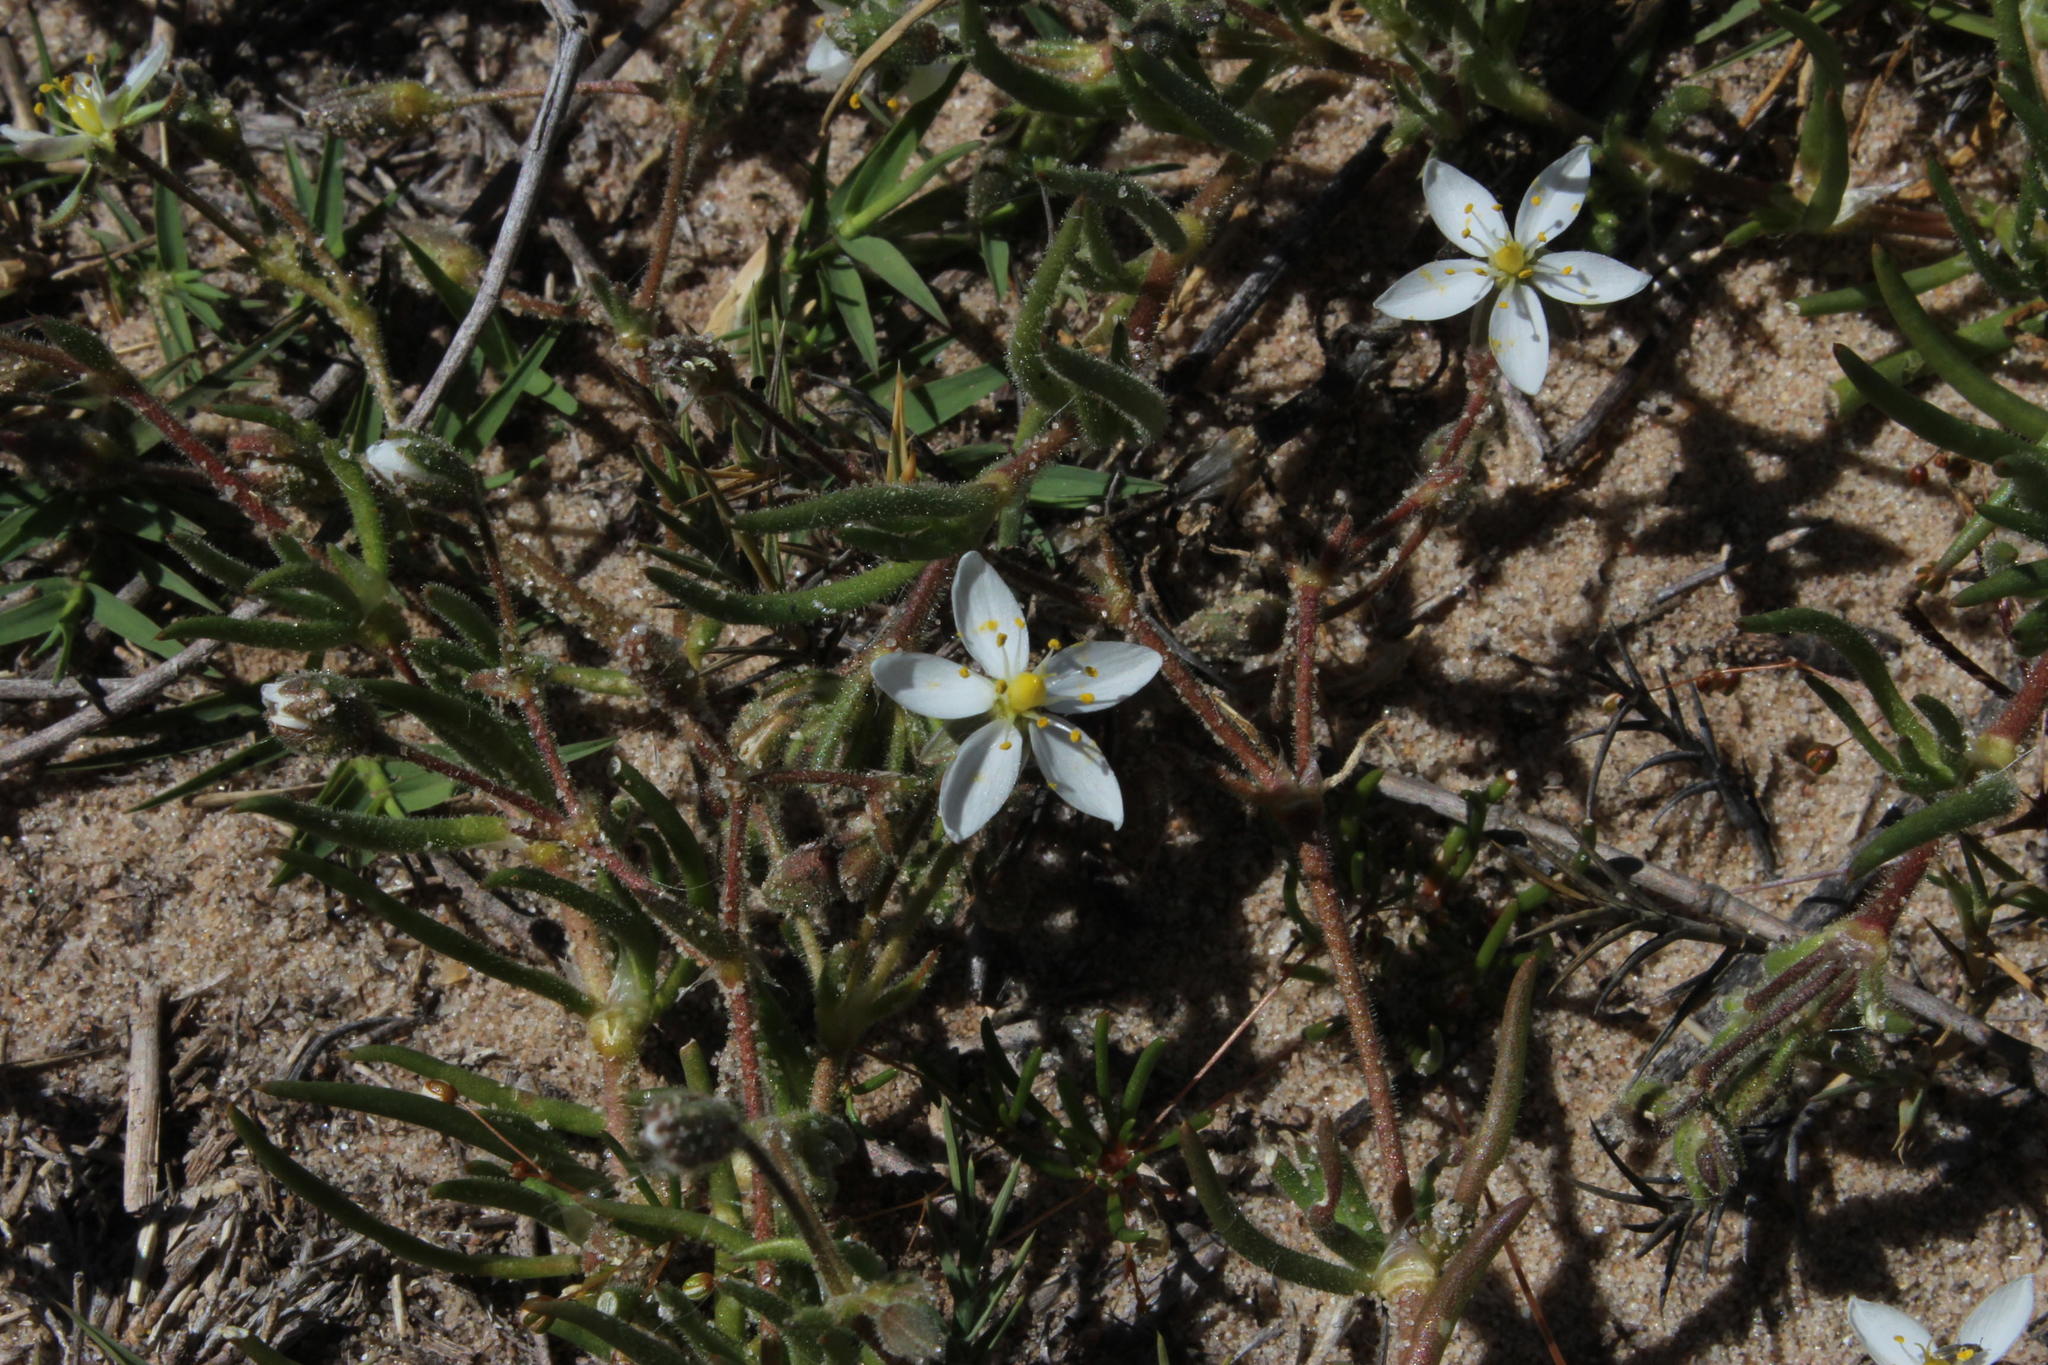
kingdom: Plantae
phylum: Tracheophyta
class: Magnoliopsida
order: Caryophyllales
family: Caryophyllaceae
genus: Spergularia
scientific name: Spergularia media
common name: Greater sea-spurrey
